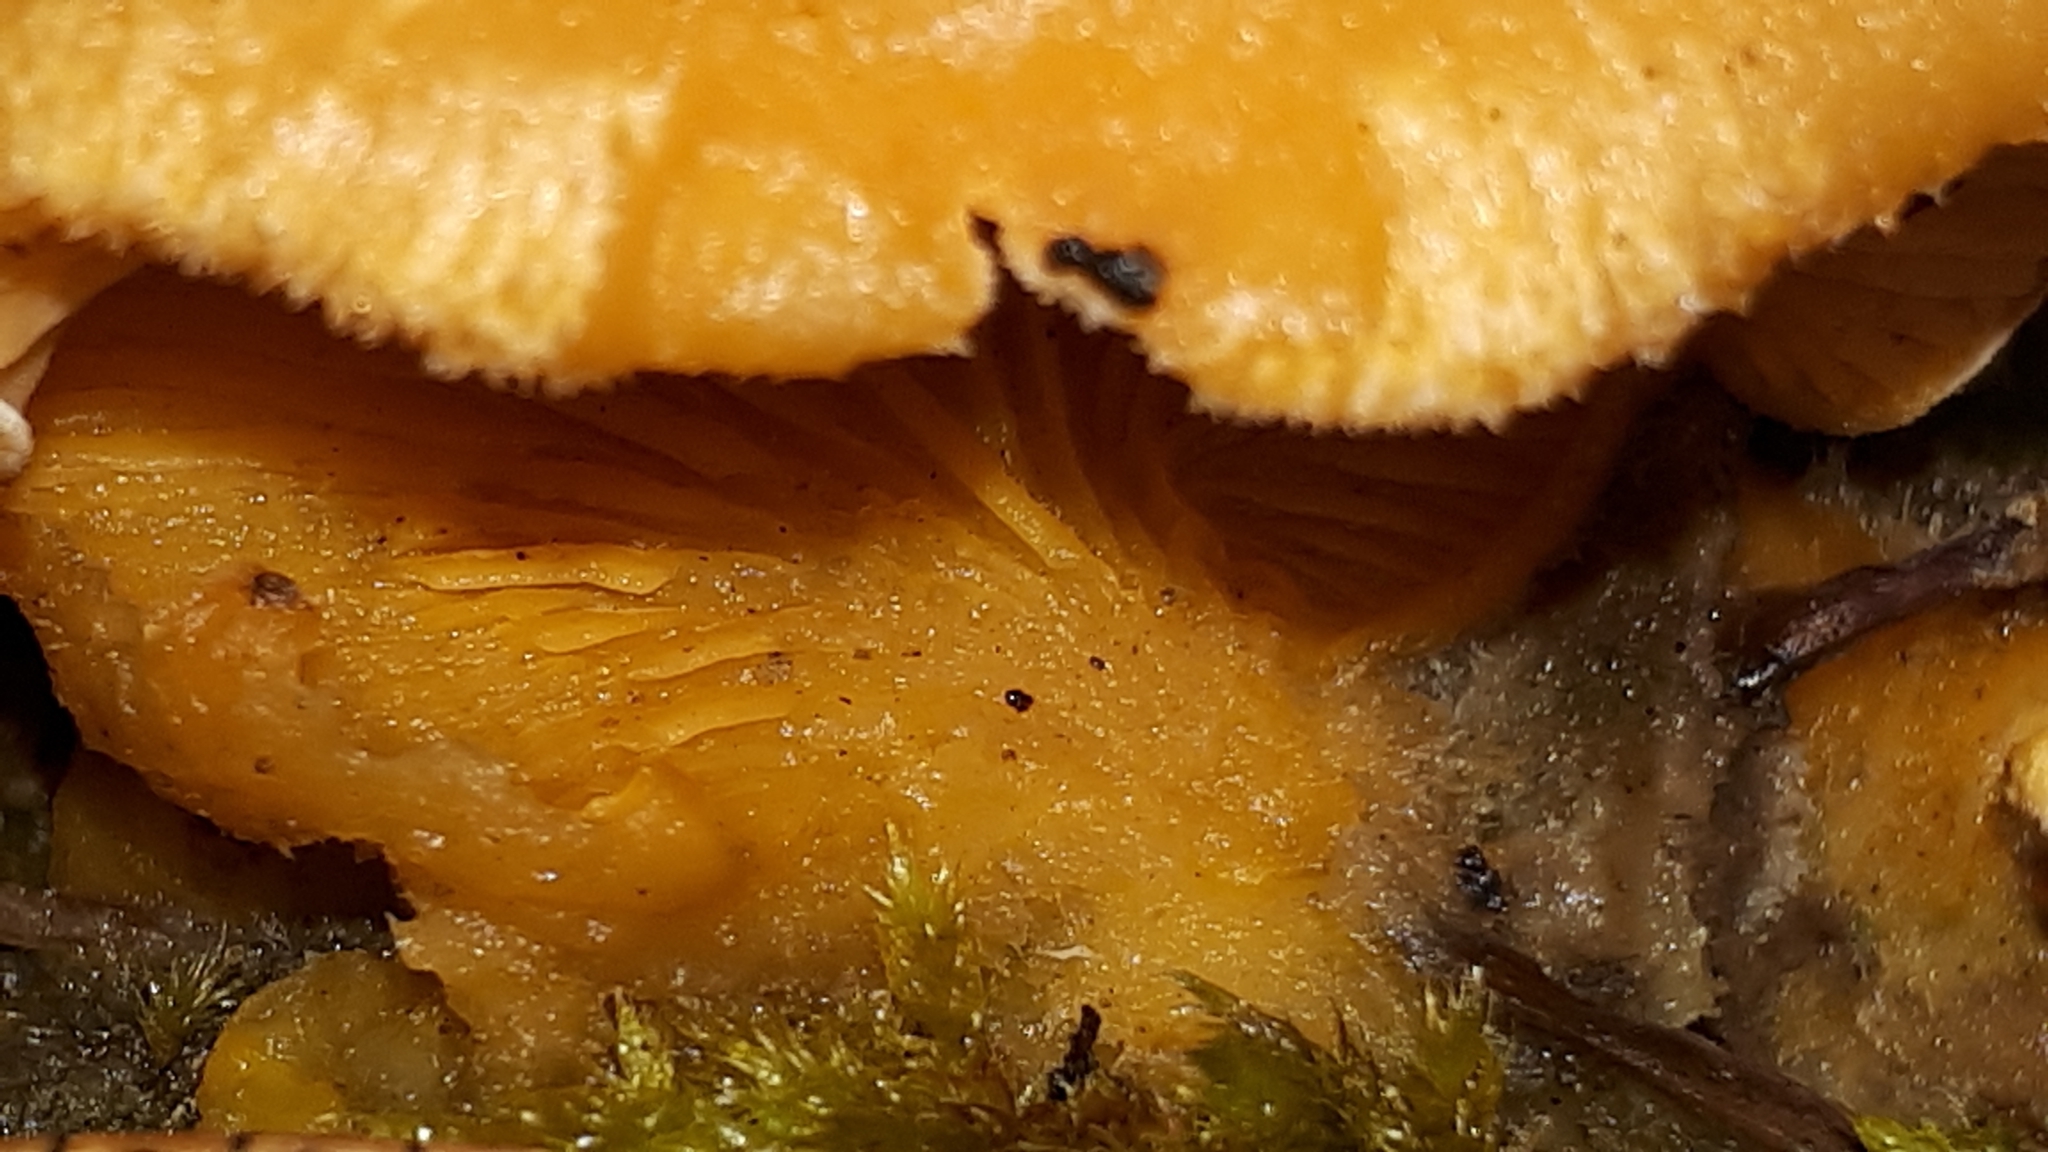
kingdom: Fungi
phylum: Basidiomycota
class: Agaricomycetes
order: Agaricales
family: Phyllotopsidaceae
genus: Phyllotopsis
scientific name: Phyllotopsis nidulans
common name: Orange mock oyster
